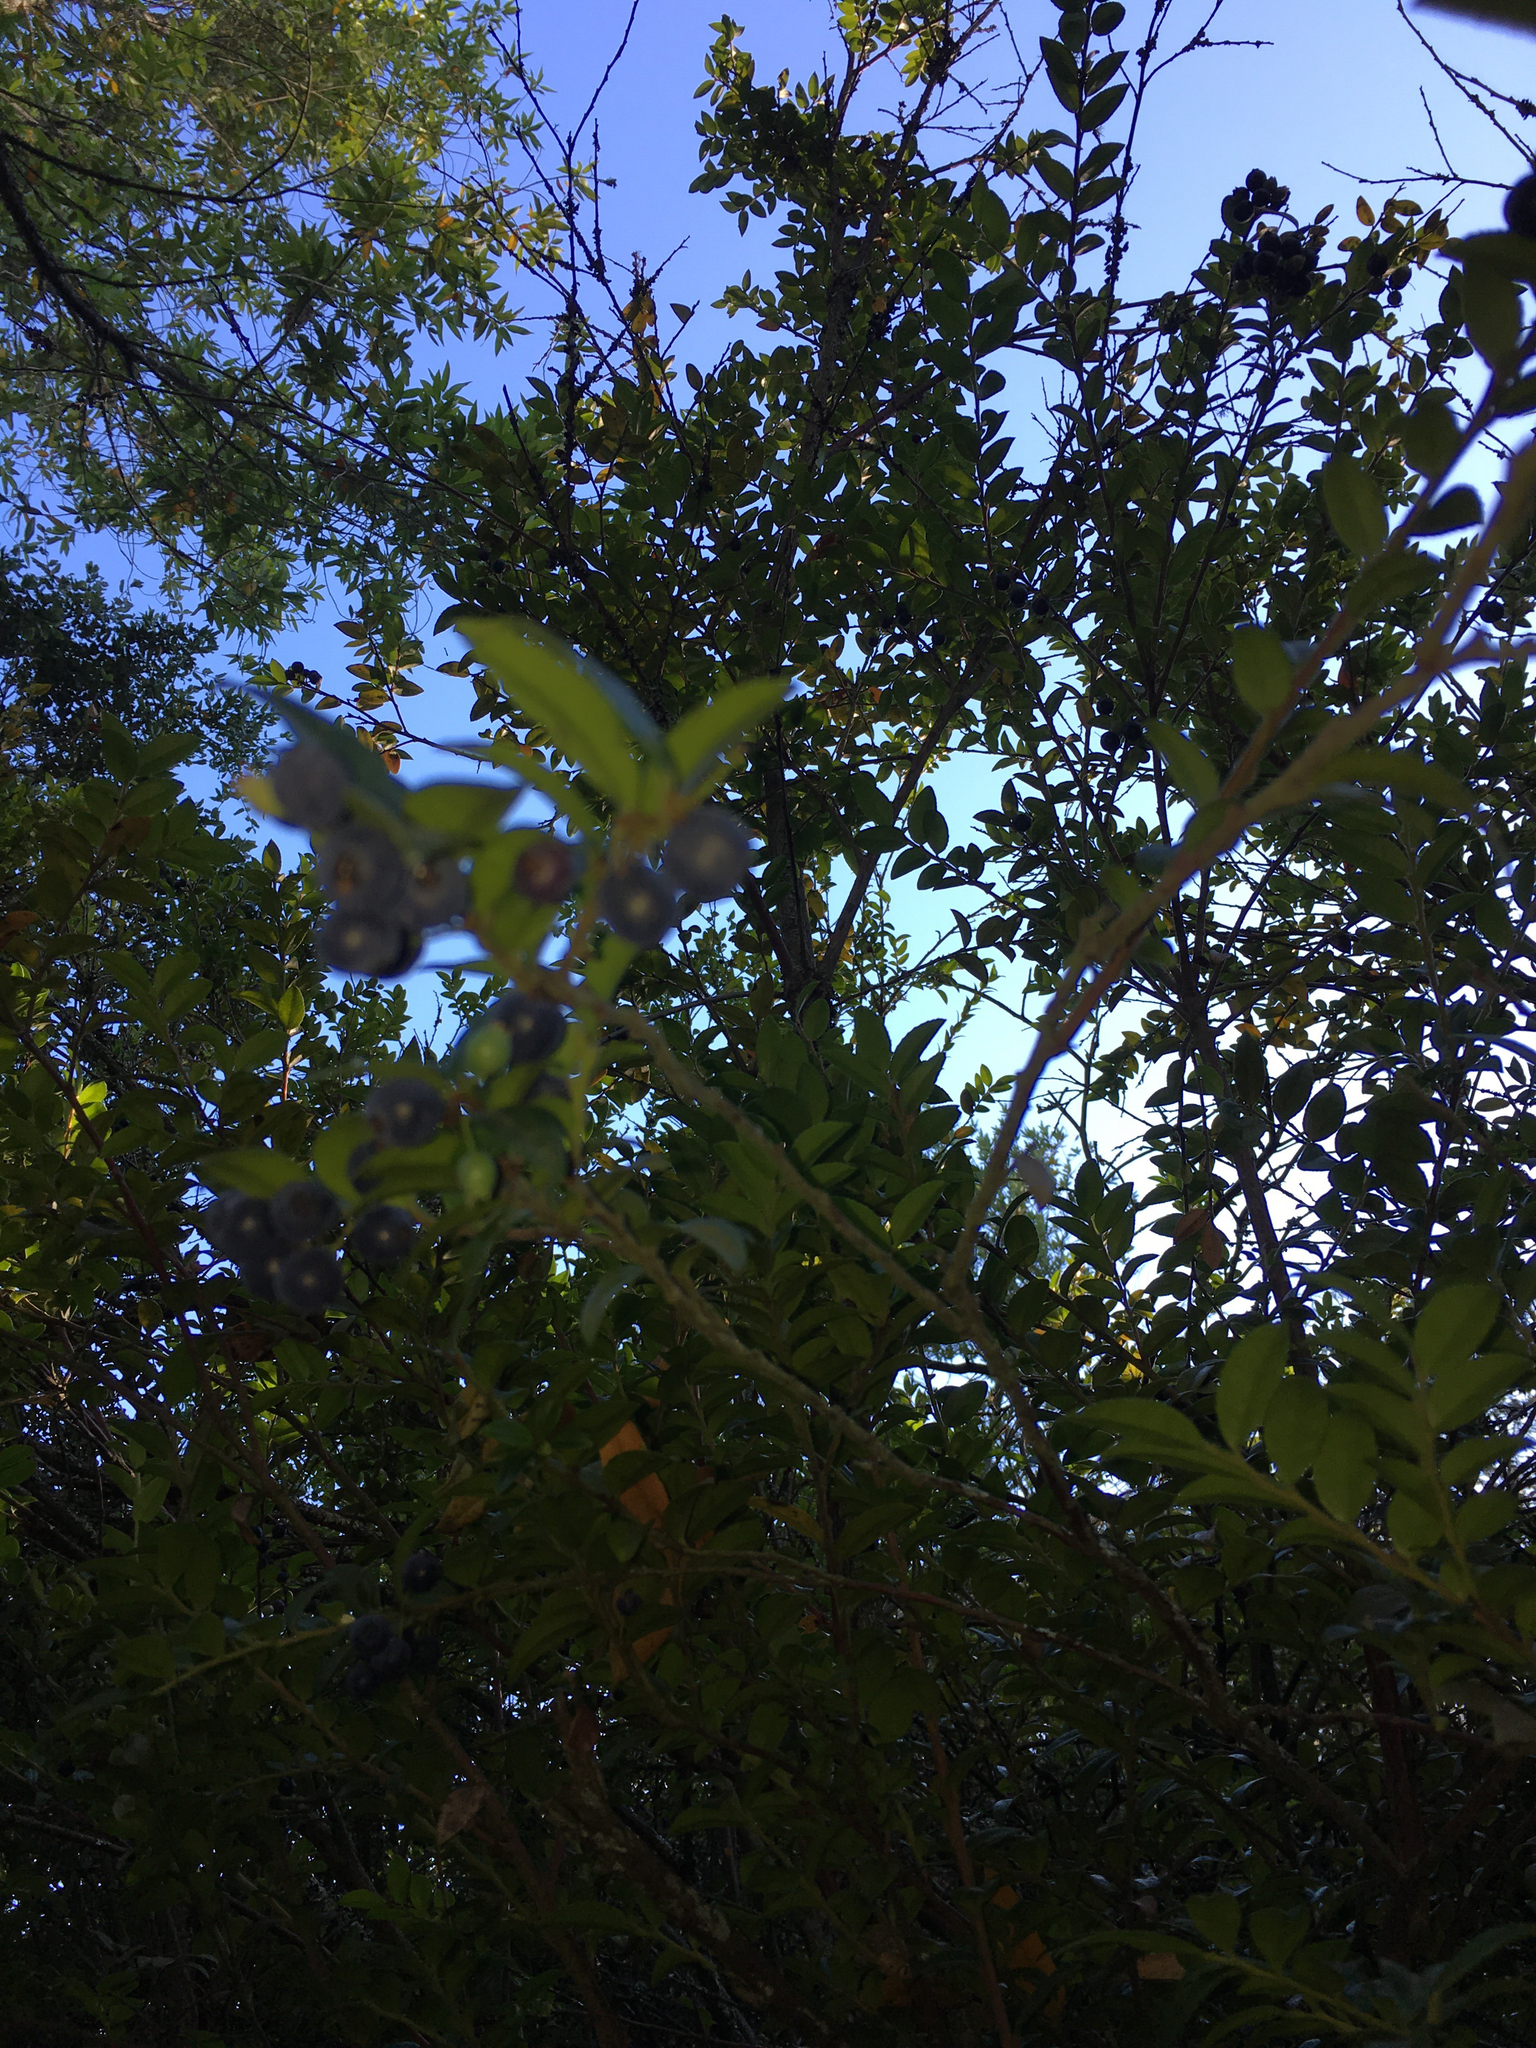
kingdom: Plantae
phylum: Tracheophyta
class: Magnoliopsida
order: Ericales
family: Ericaceae
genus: Vaccinium
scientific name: Vaccinium ovatum
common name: California-huckleberry
